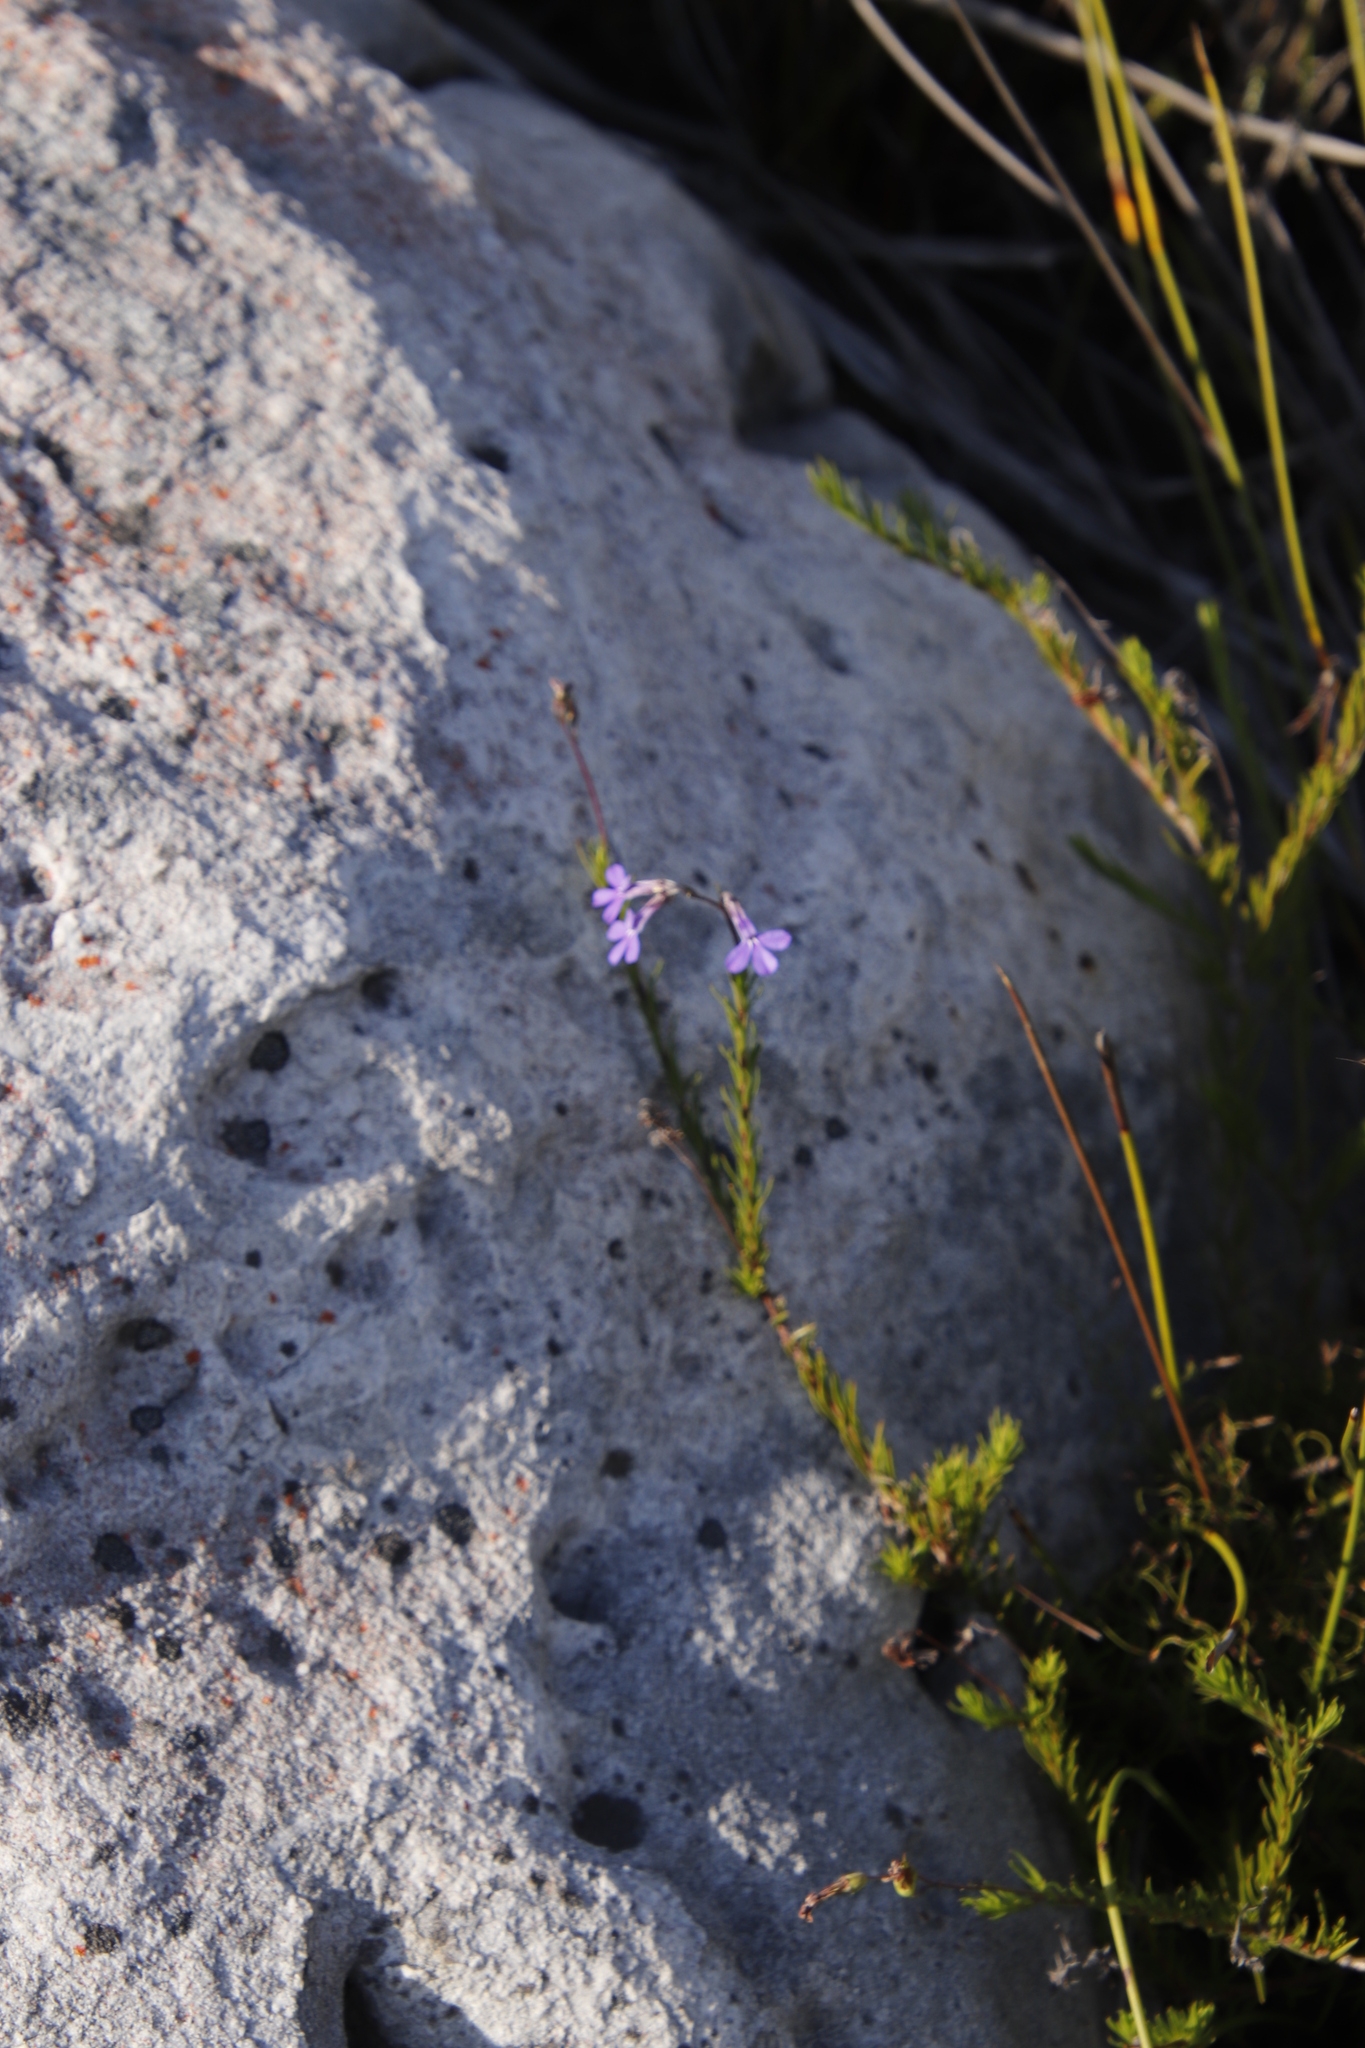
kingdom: Plantae
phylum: Tracheophyta
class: Magnoliopsida
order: Asterales
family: Campanulaceae
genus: Lobelia
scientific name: Lobelia pinifolia
